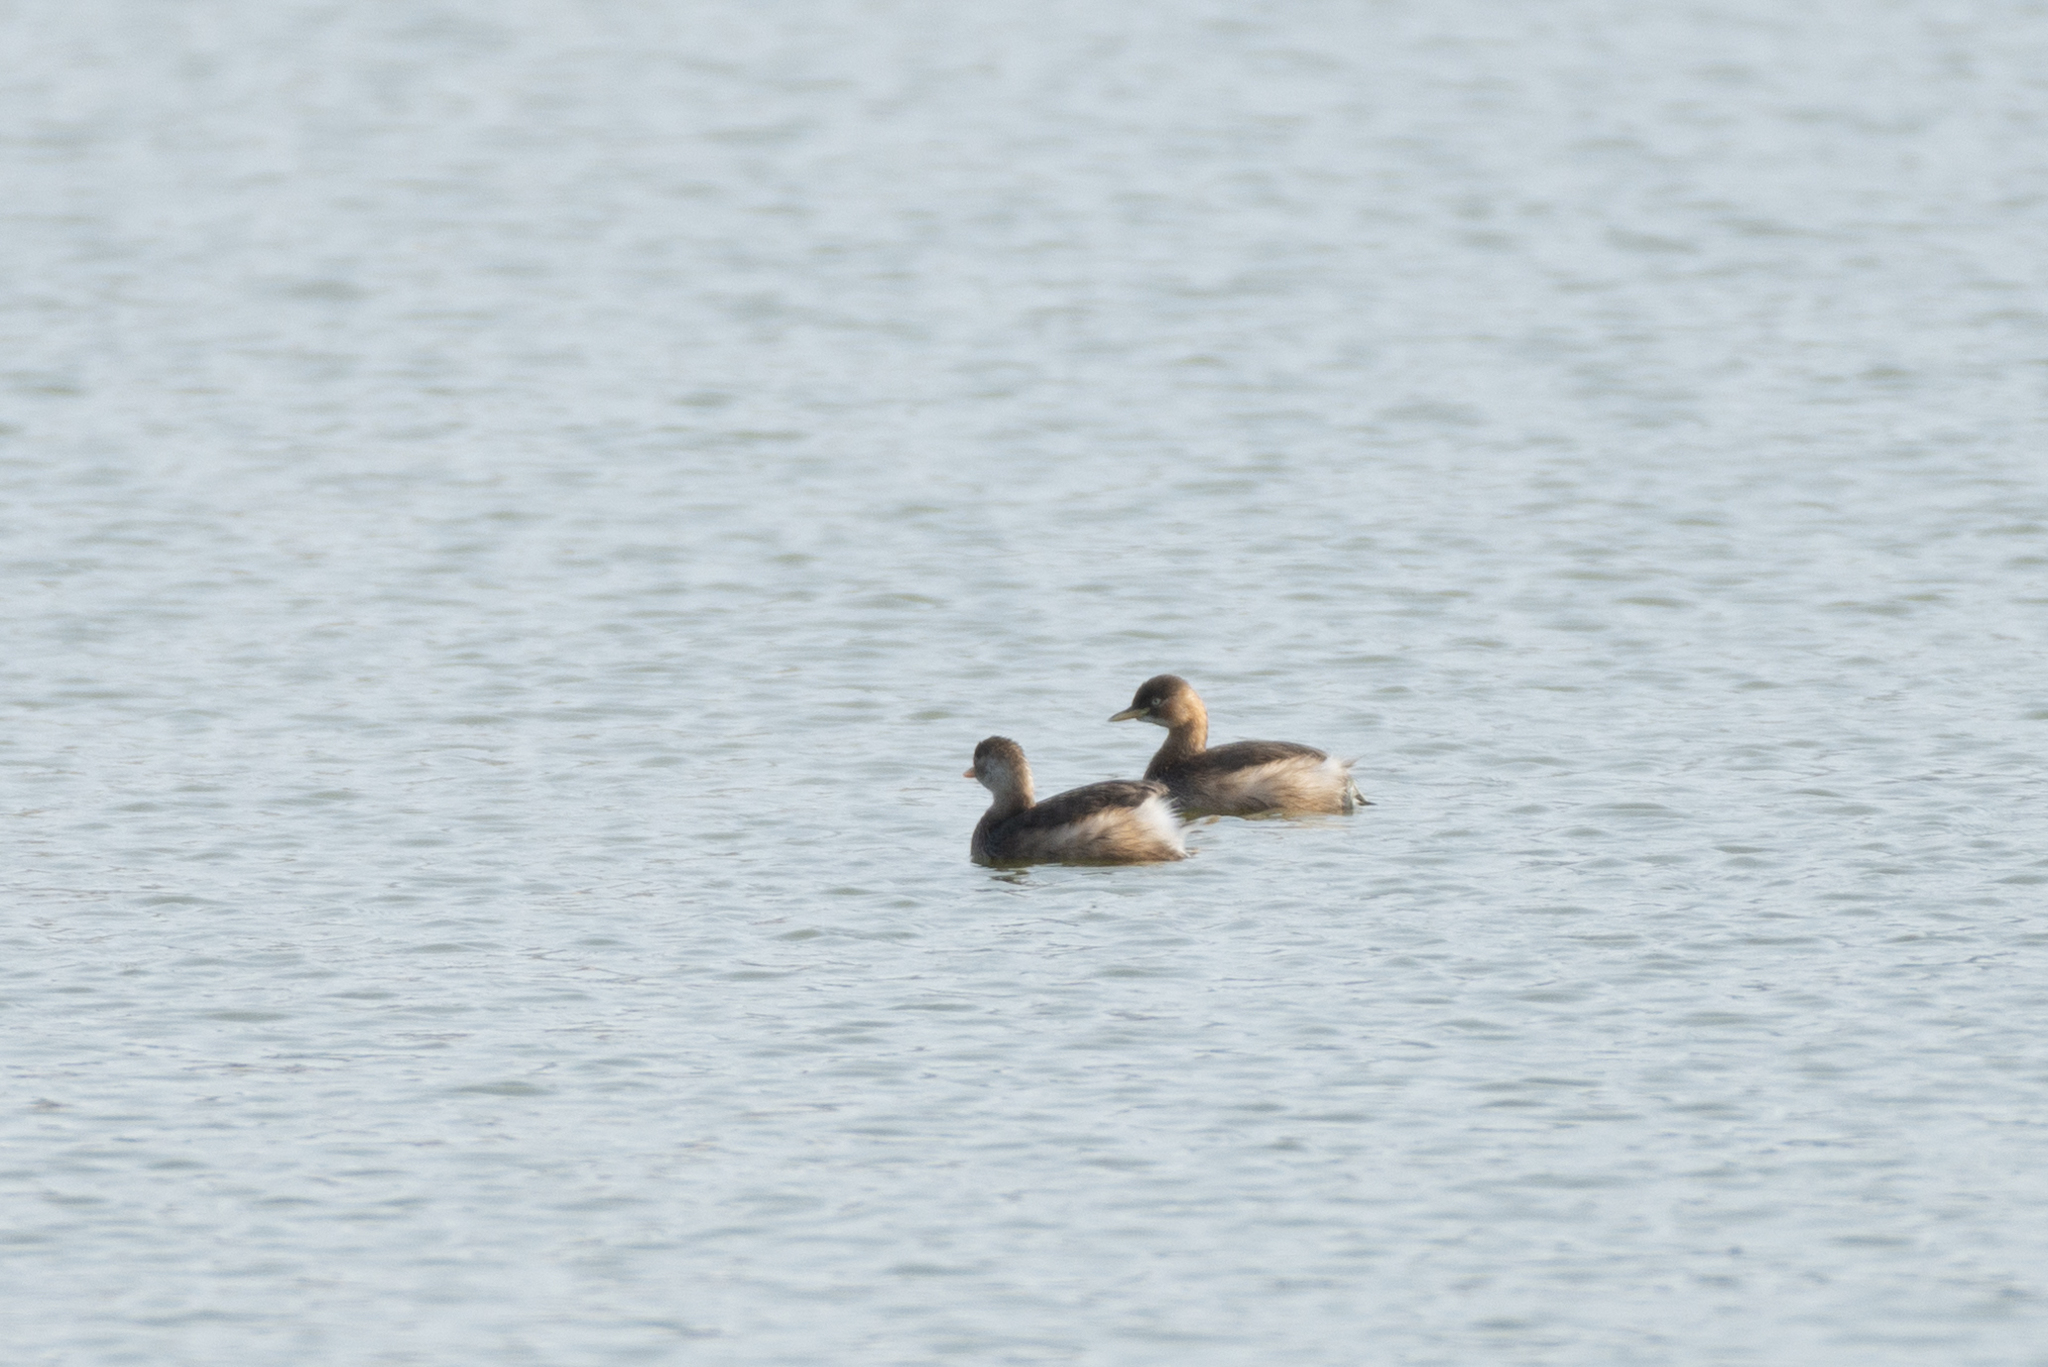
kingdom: Animalia
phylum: Chordata
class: Aves
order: Podicipediformes
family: Podicipedidae
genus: Tachybaptus
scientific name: Tachybaptus ruficollis
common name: Little grebe
